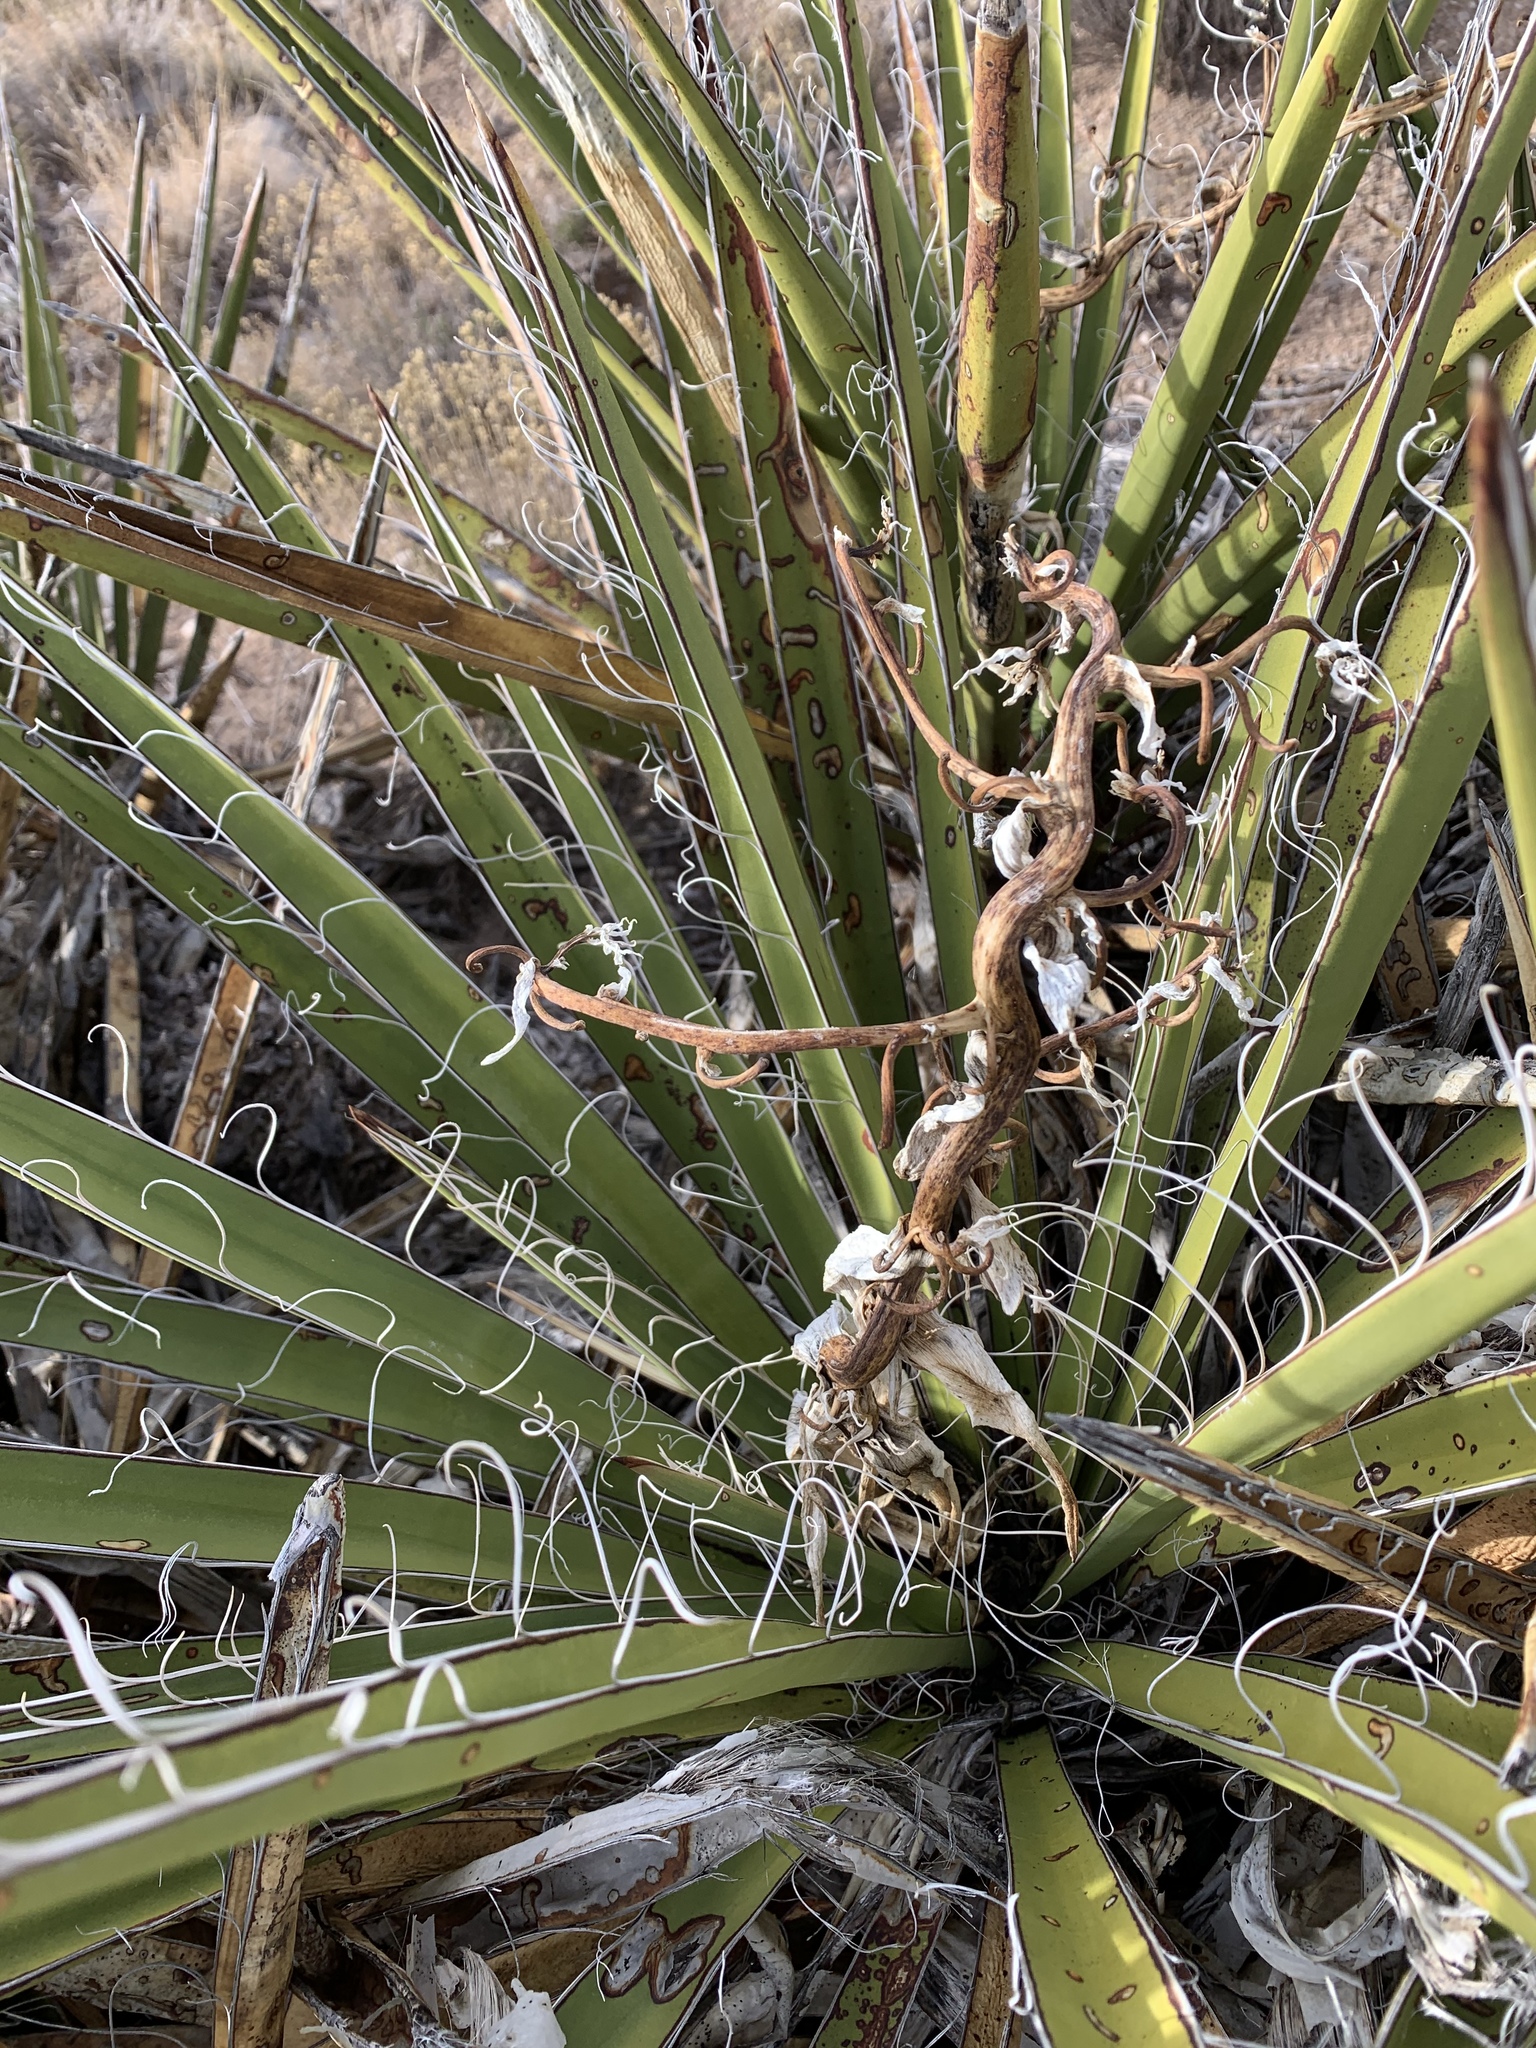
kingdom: Plantae
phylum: Tracheophyta
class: Liliopsida
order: Asparagales
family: Asparagaceae
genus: Yucca
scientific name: Yucca baccata
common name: Banana yucca
